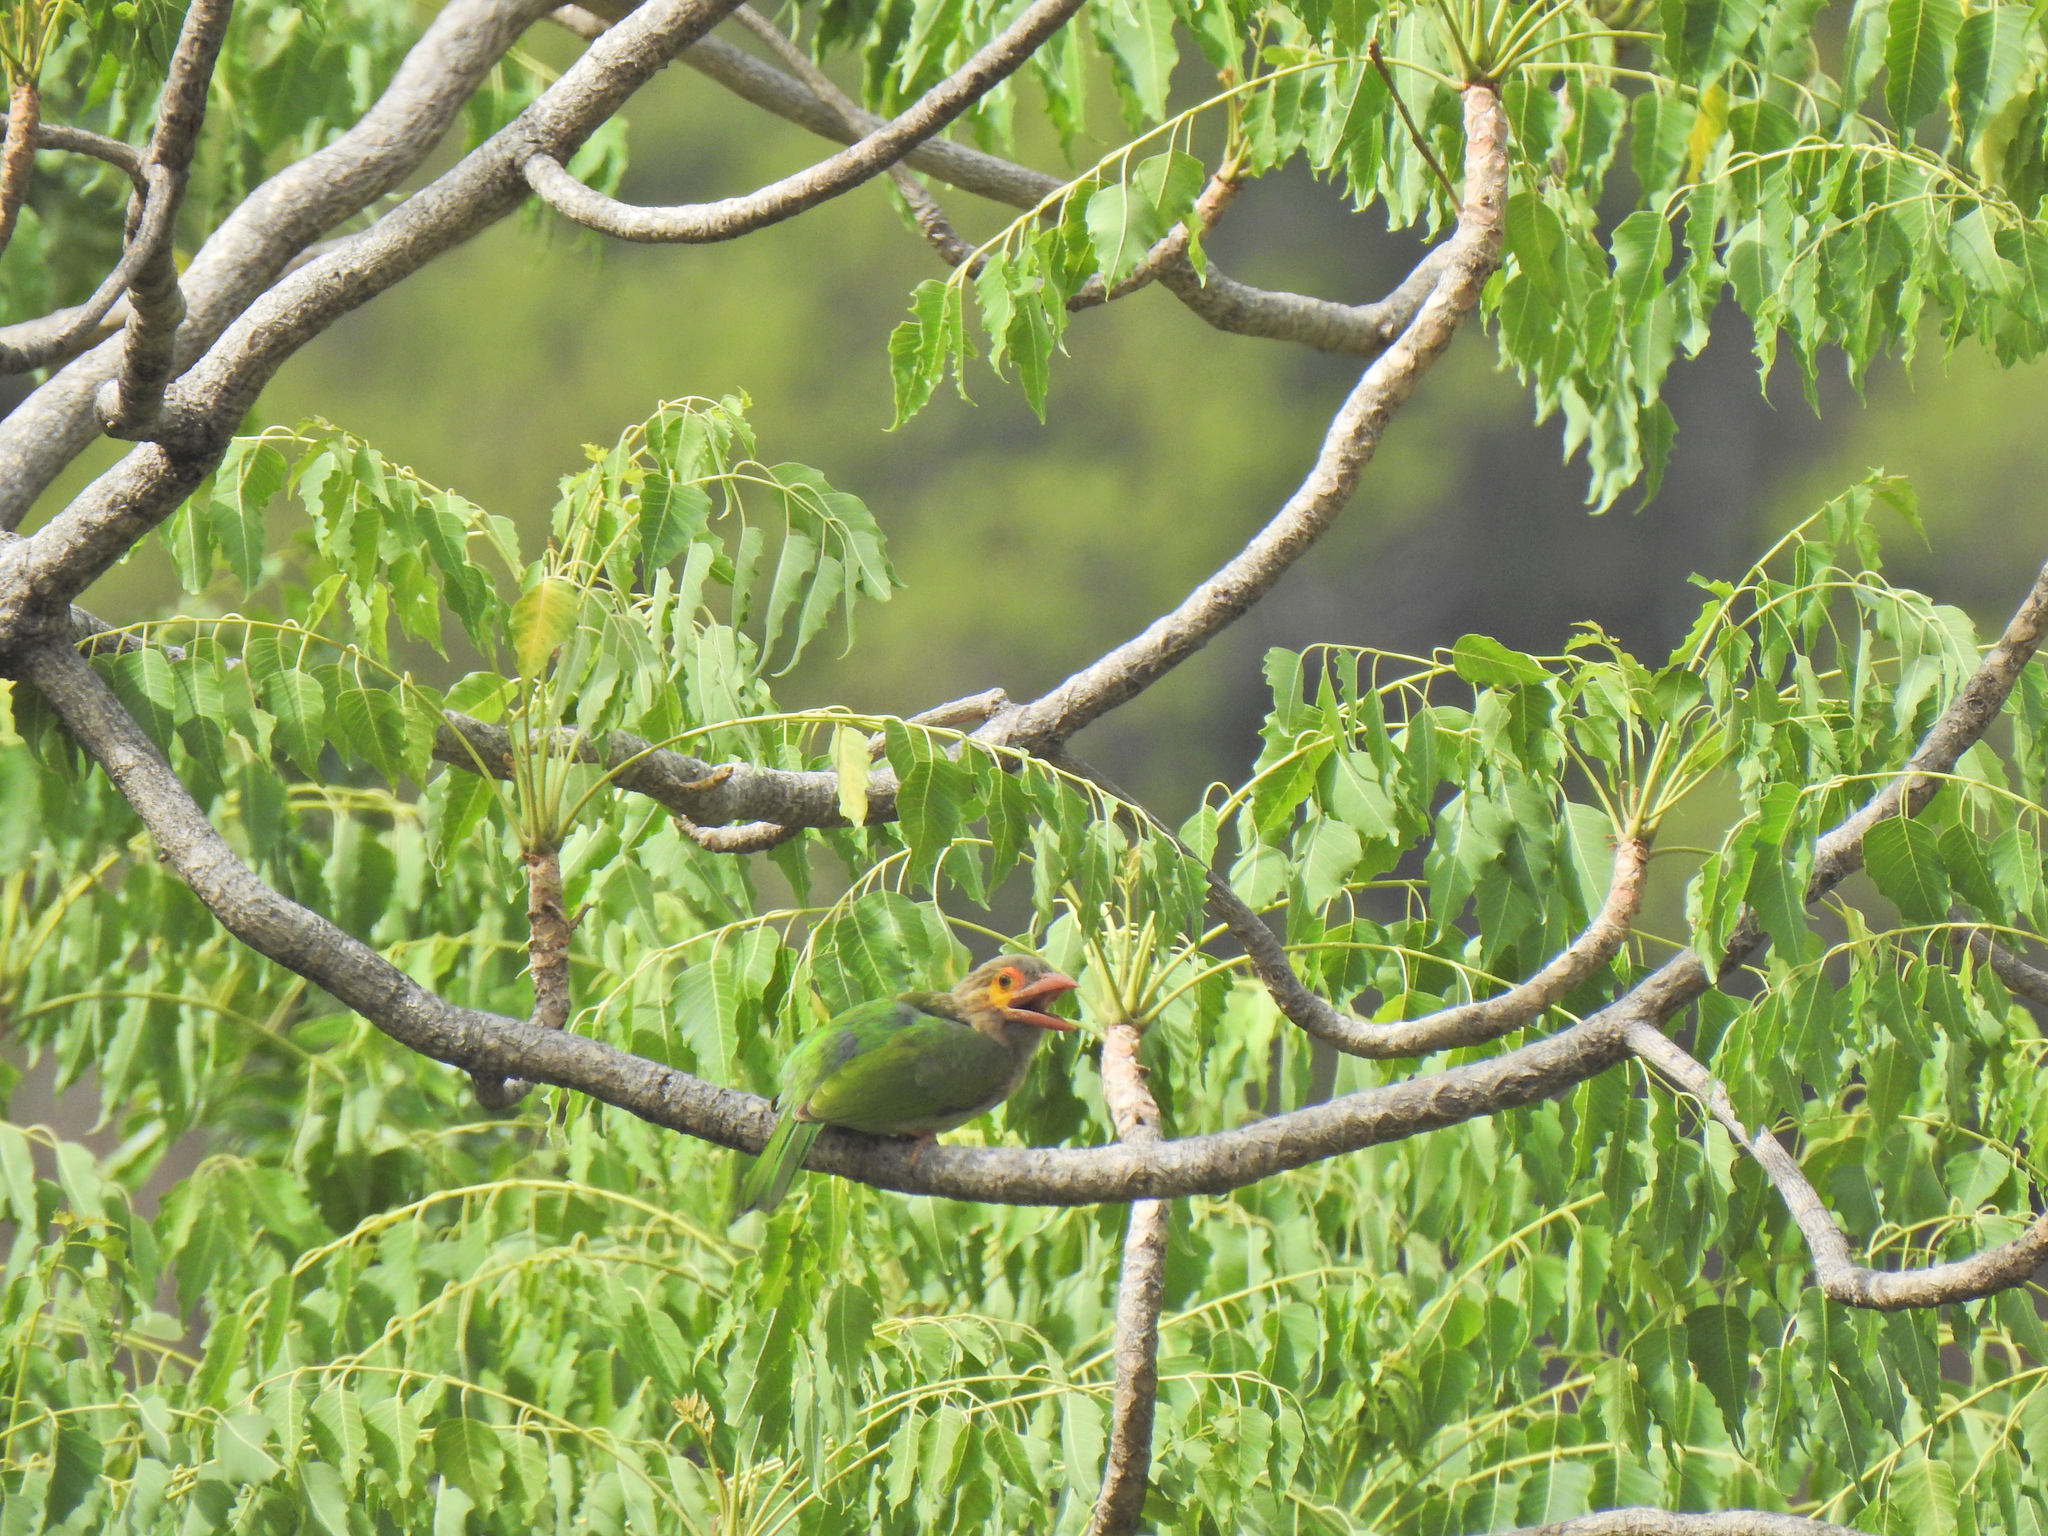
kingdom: Animalia
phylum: Chordata
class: Aves
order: Piciformes
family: Megalaimidae
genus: Psilopogon
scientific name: Psilopogon zeylanicus
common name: Brown-headed barbet
